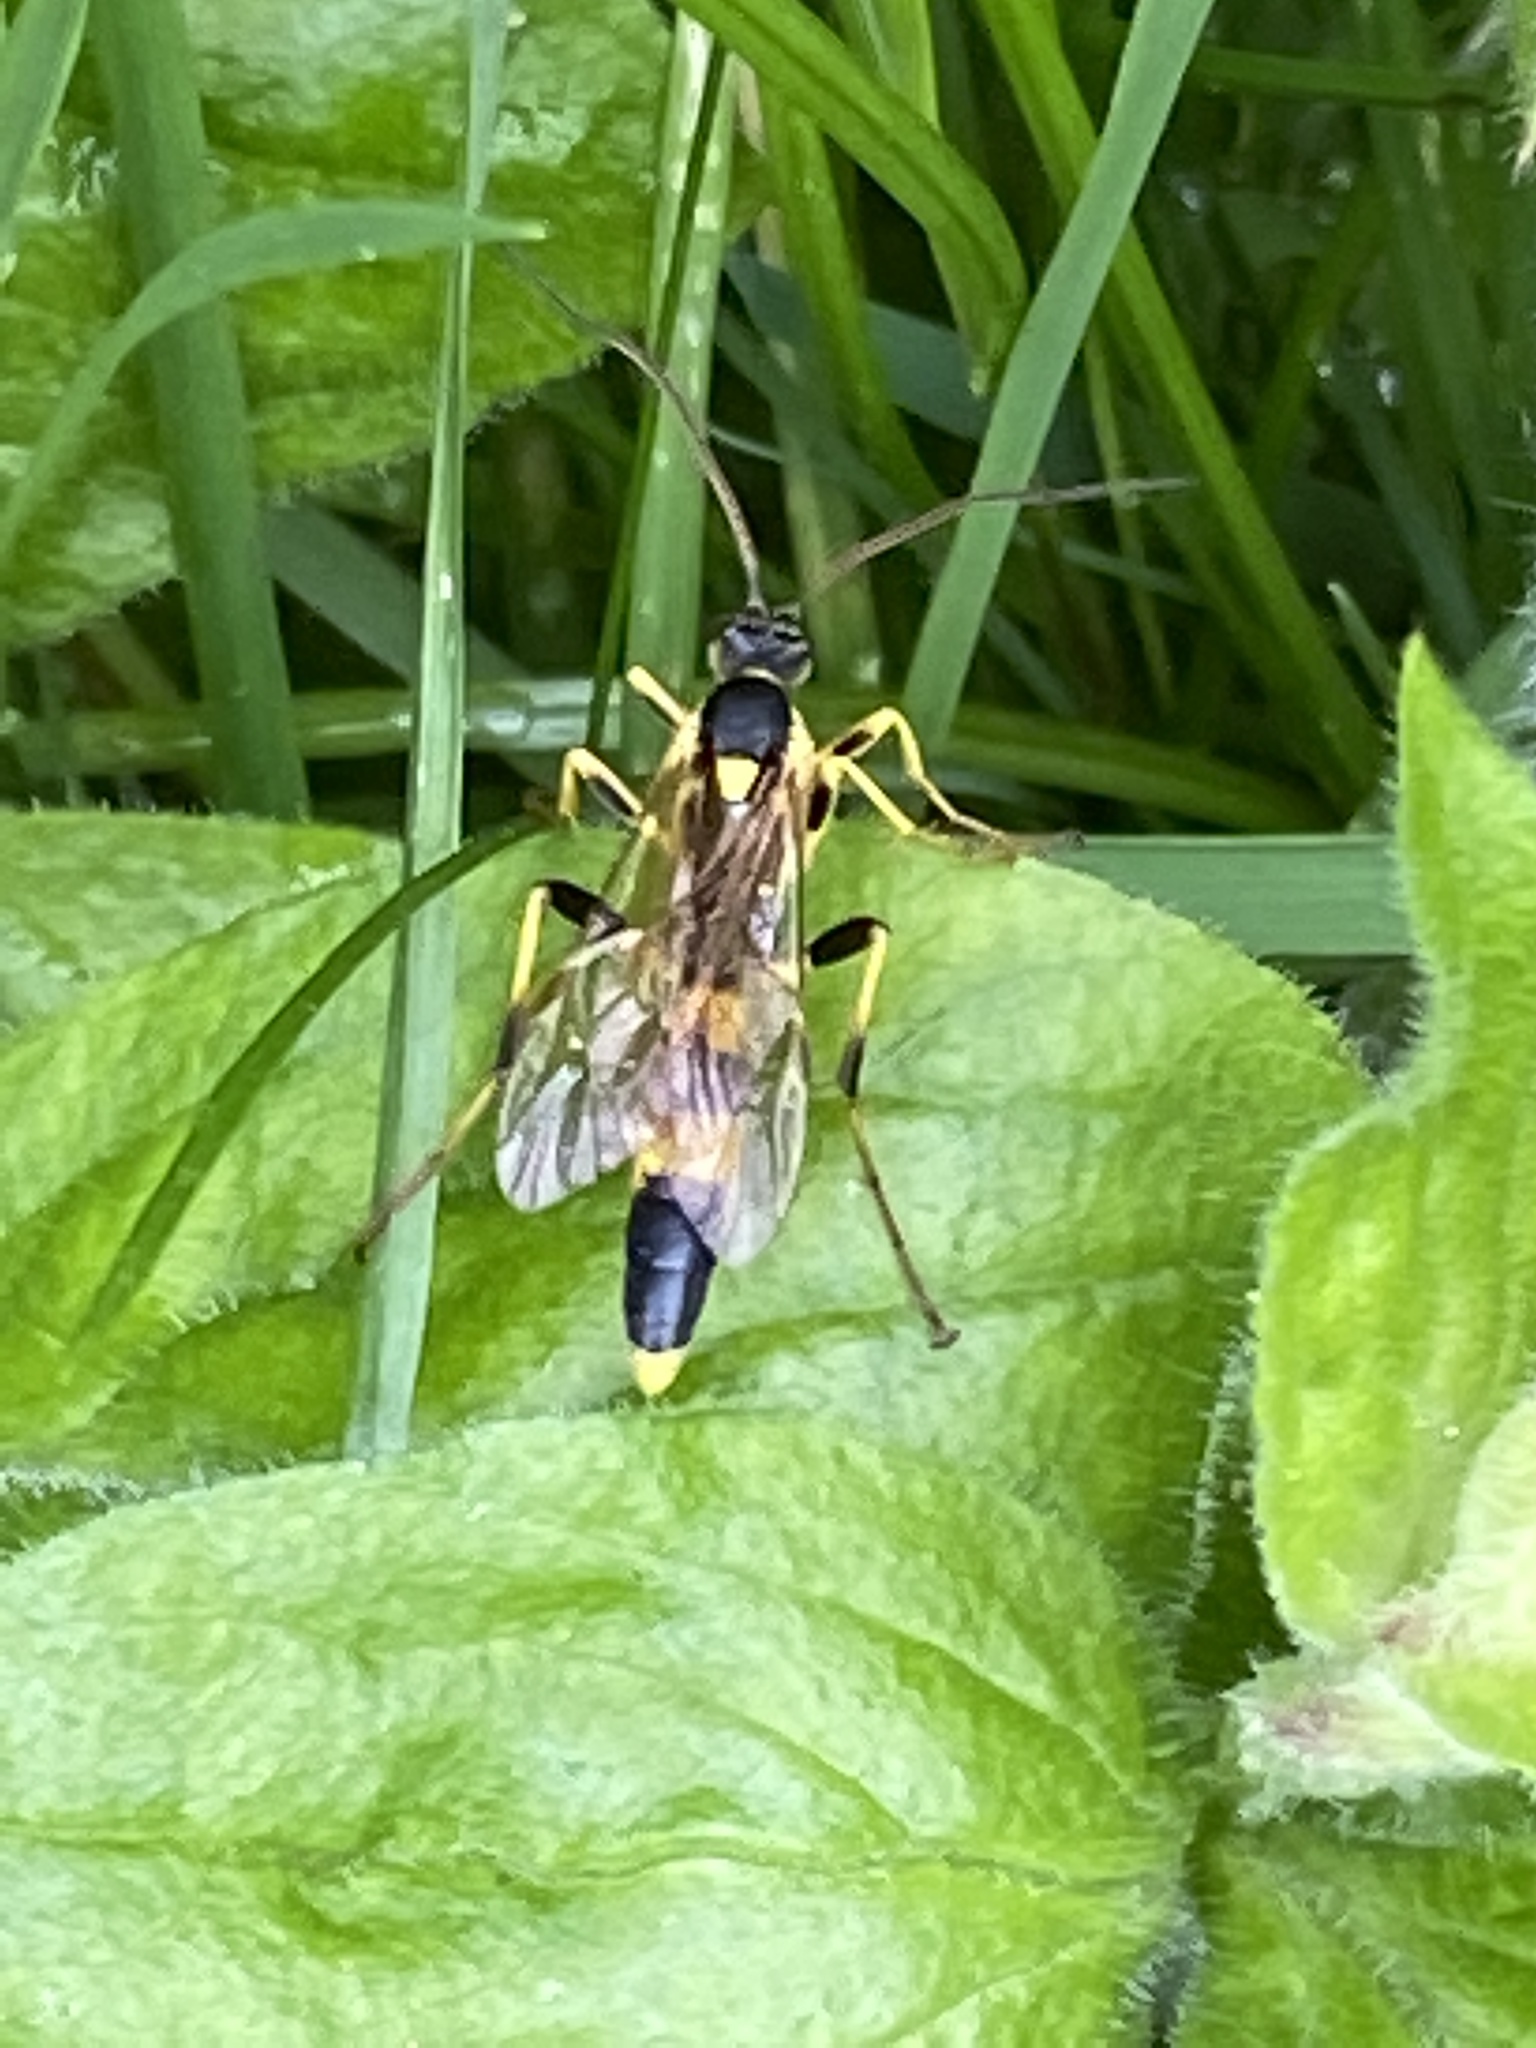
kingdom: Animalia
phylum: Arthropoda
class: Insecta
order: Hymenoptera
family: Ichneumonidae
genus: Amblyteles
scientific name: Amblyteles armatorius
